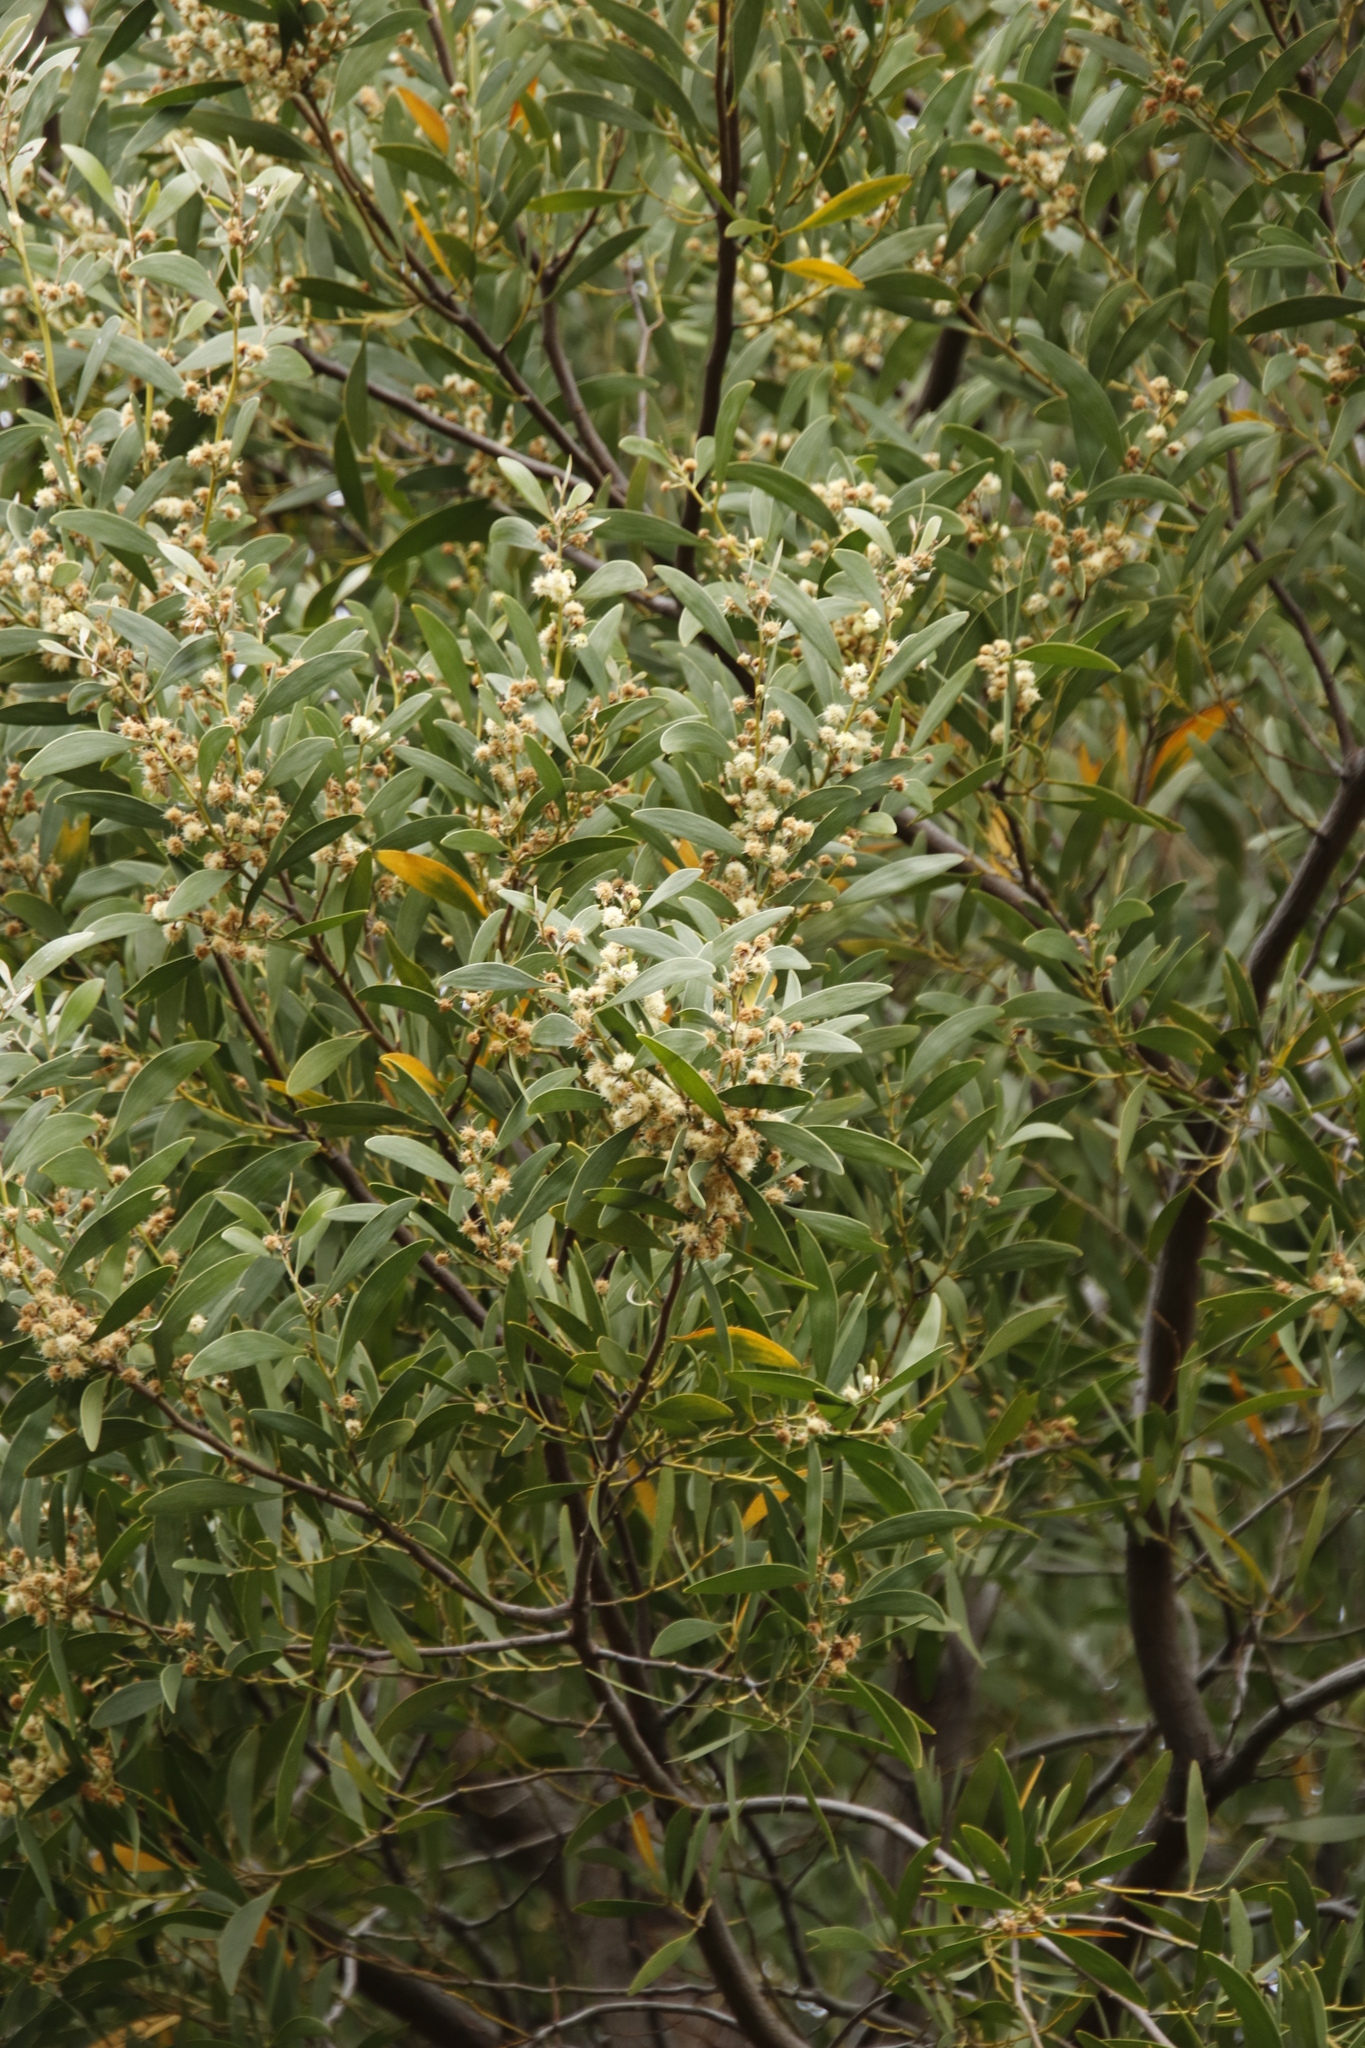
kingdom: Plantae
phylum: Tracheophyta
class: Magnoliopsida
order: Fabales
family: Fabaceae
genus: Acacia
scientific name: Acacia melanoxylon
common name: Blackwood
